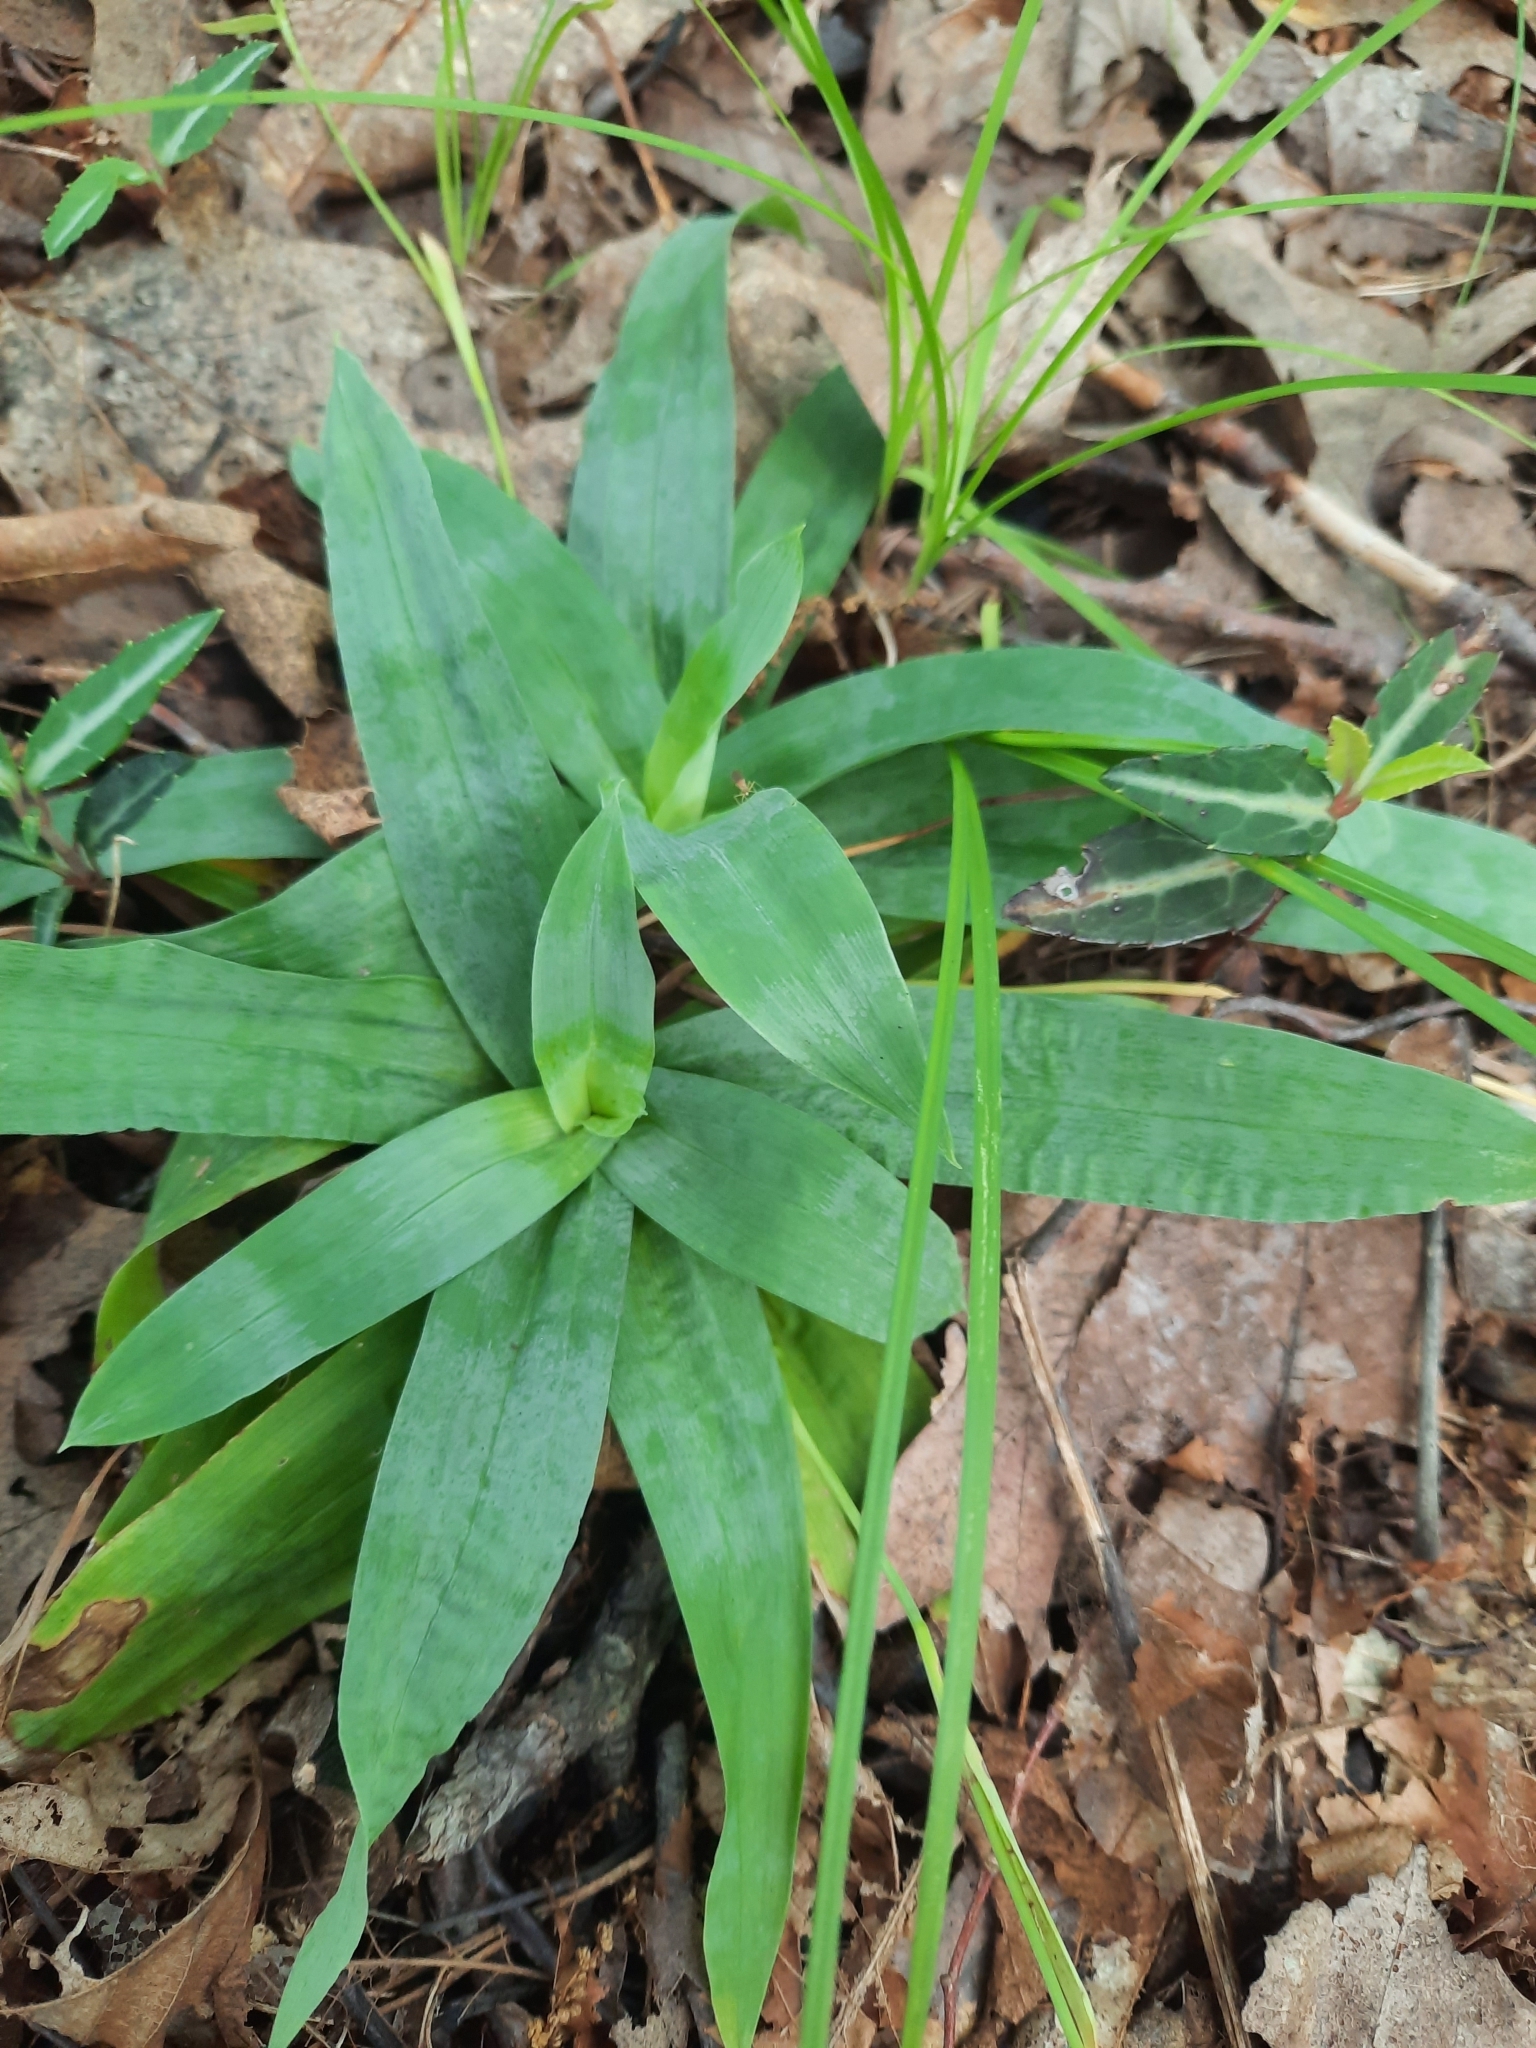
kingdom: Plantae
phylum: Tracheophyta
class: Liliopsida
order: Poales
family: Cyperaceae
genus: Carex
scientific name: Carex platyphylla
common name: Broad-leaved sedge
